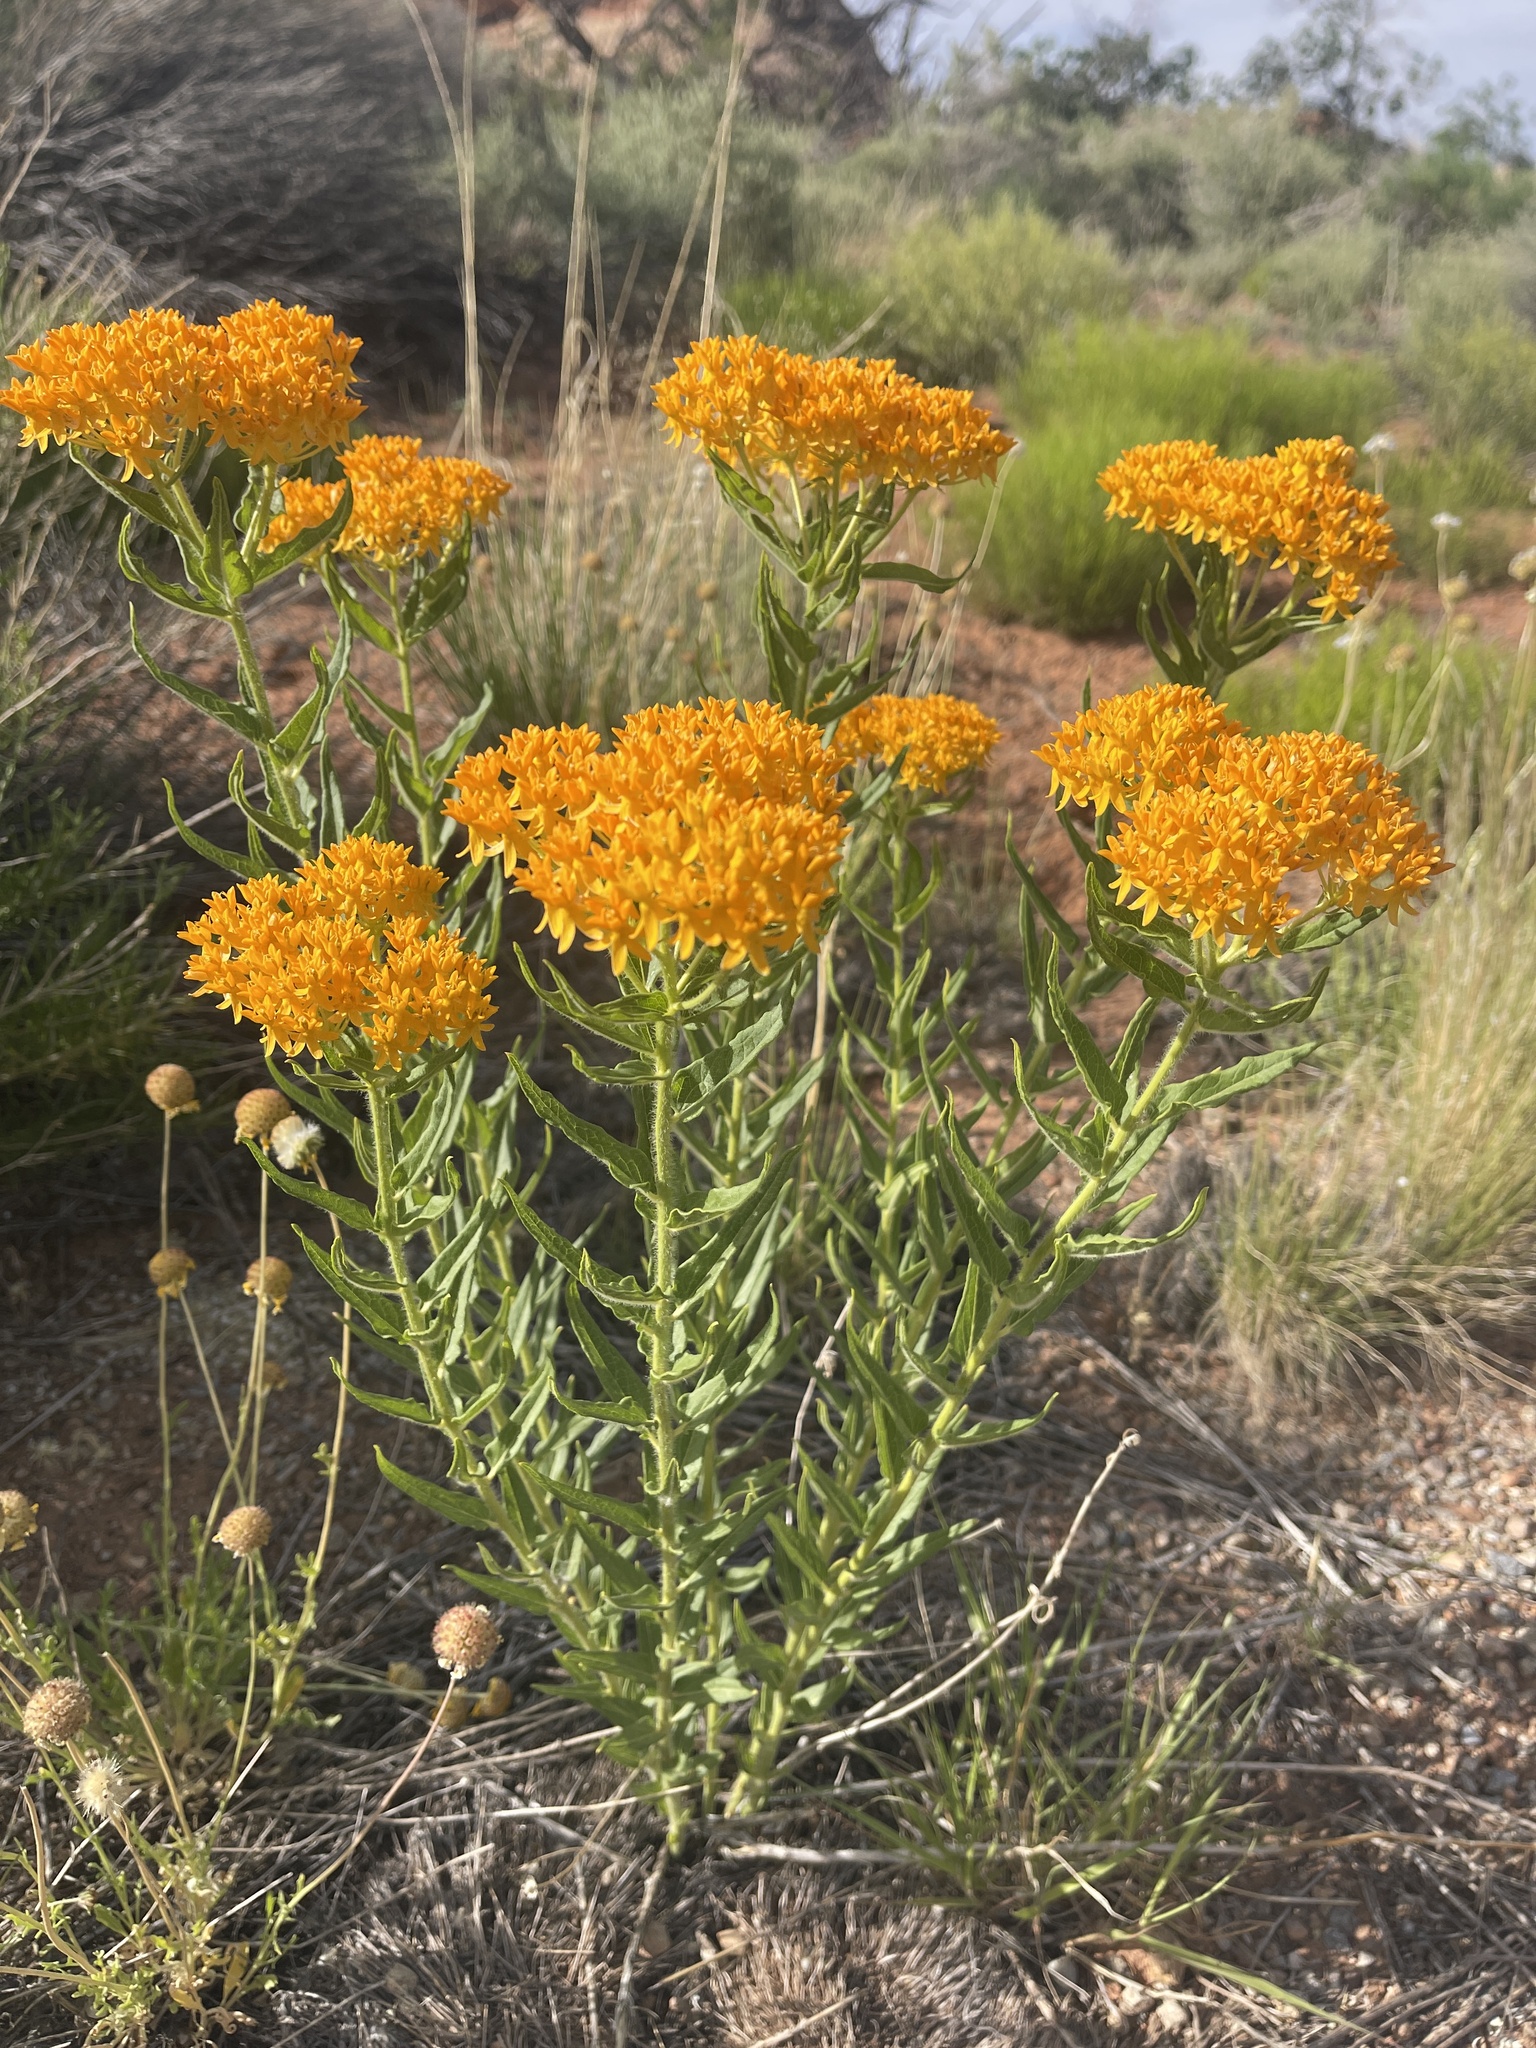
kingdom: Plantae
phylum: Tracheophyta
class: Magnoliopsida
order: Gentianales
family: Apocynaceae
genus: Asclepias
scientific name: Asclepias tuberosa
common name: Butterfly milkweed
